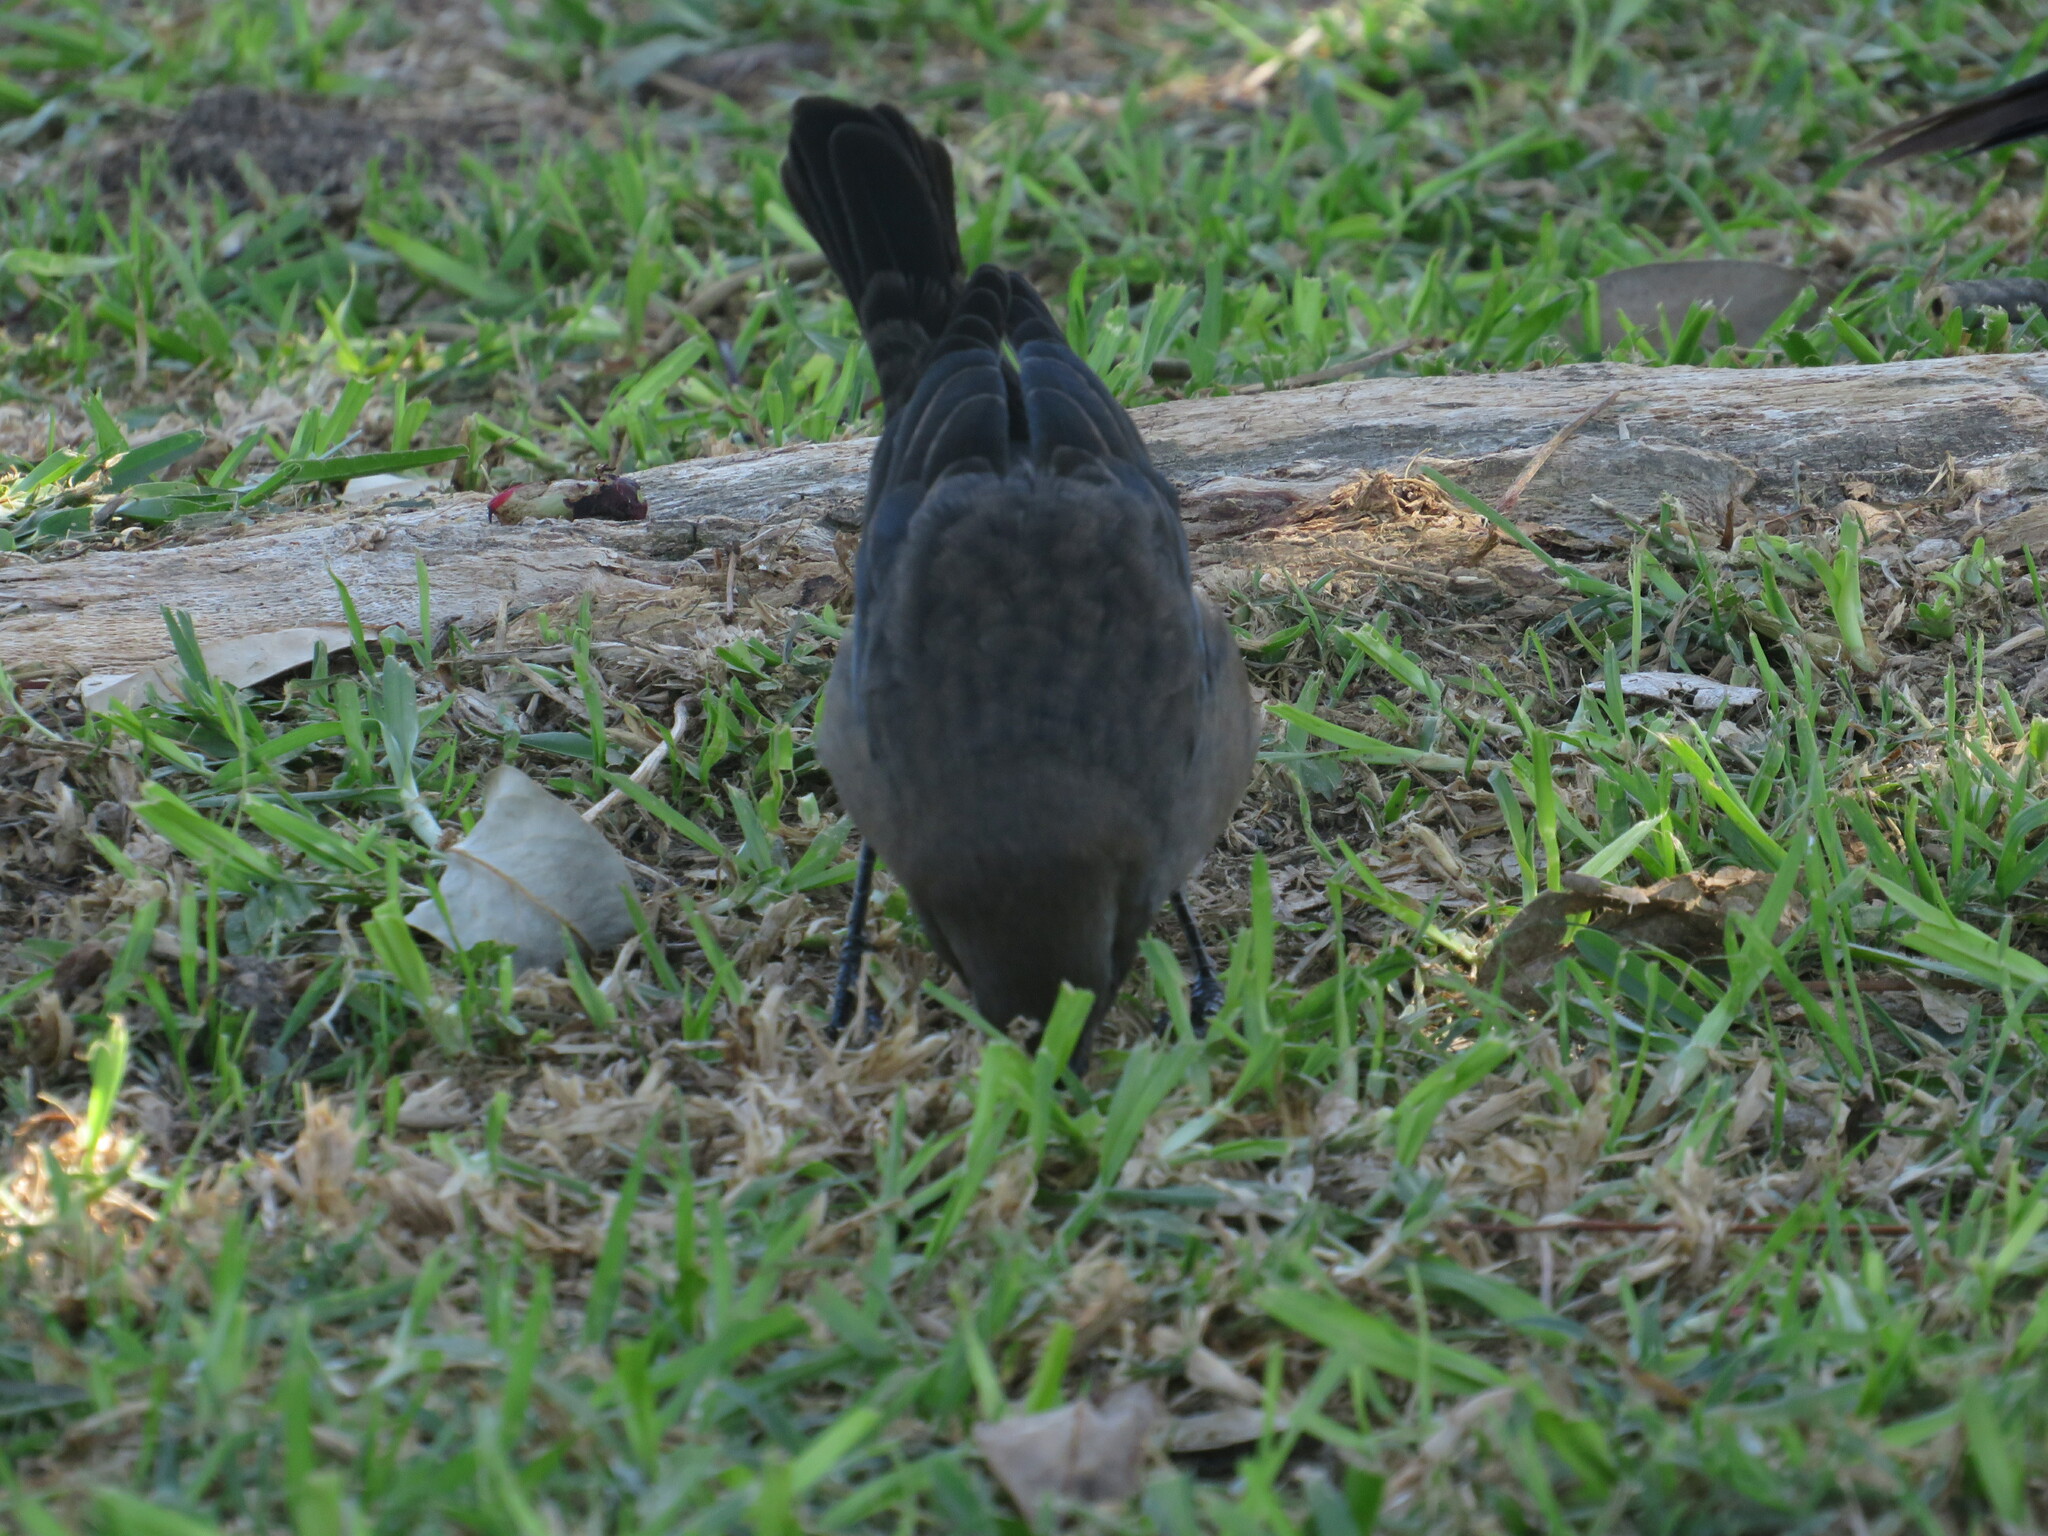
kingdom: Animalia
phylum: Chordata
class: Aves
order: Passeriformes
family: Icteridae
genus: Molothrus
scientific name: Molothrus bonariensis
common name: Shiny cowbird
